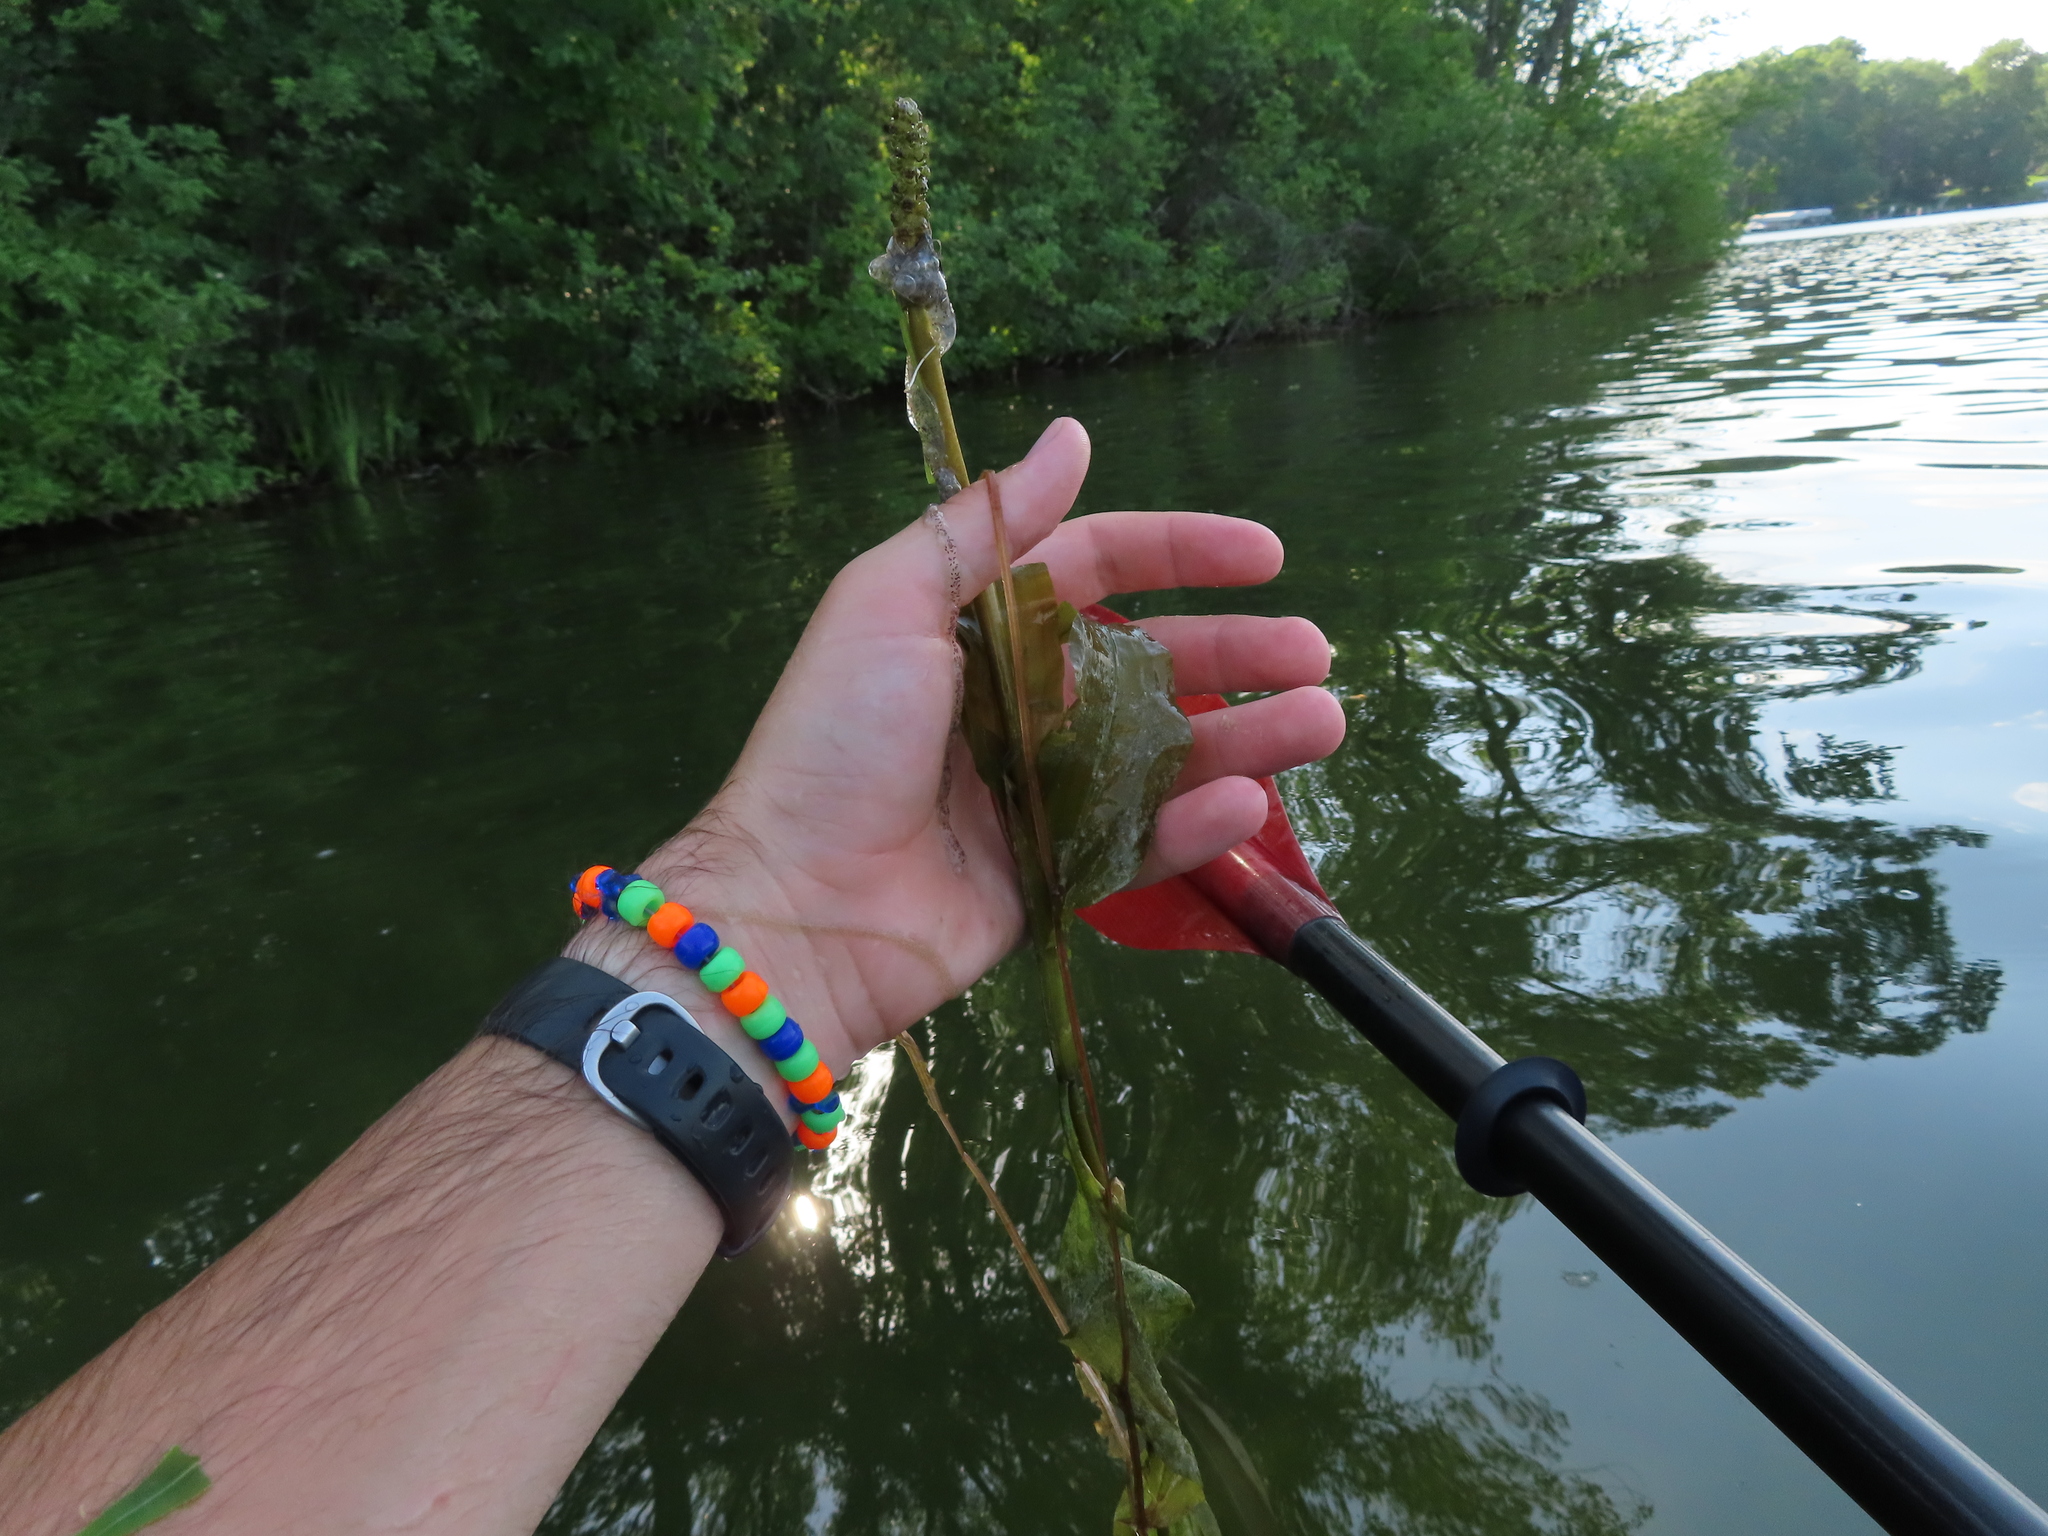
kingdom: Plantae
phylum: Tracheophyta
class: Liliopsida
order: Alismatales
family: Potamogetonaceae
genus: Potamogeton
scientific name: Potamogeton amplifolius
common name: Broad-leaved pondweed
